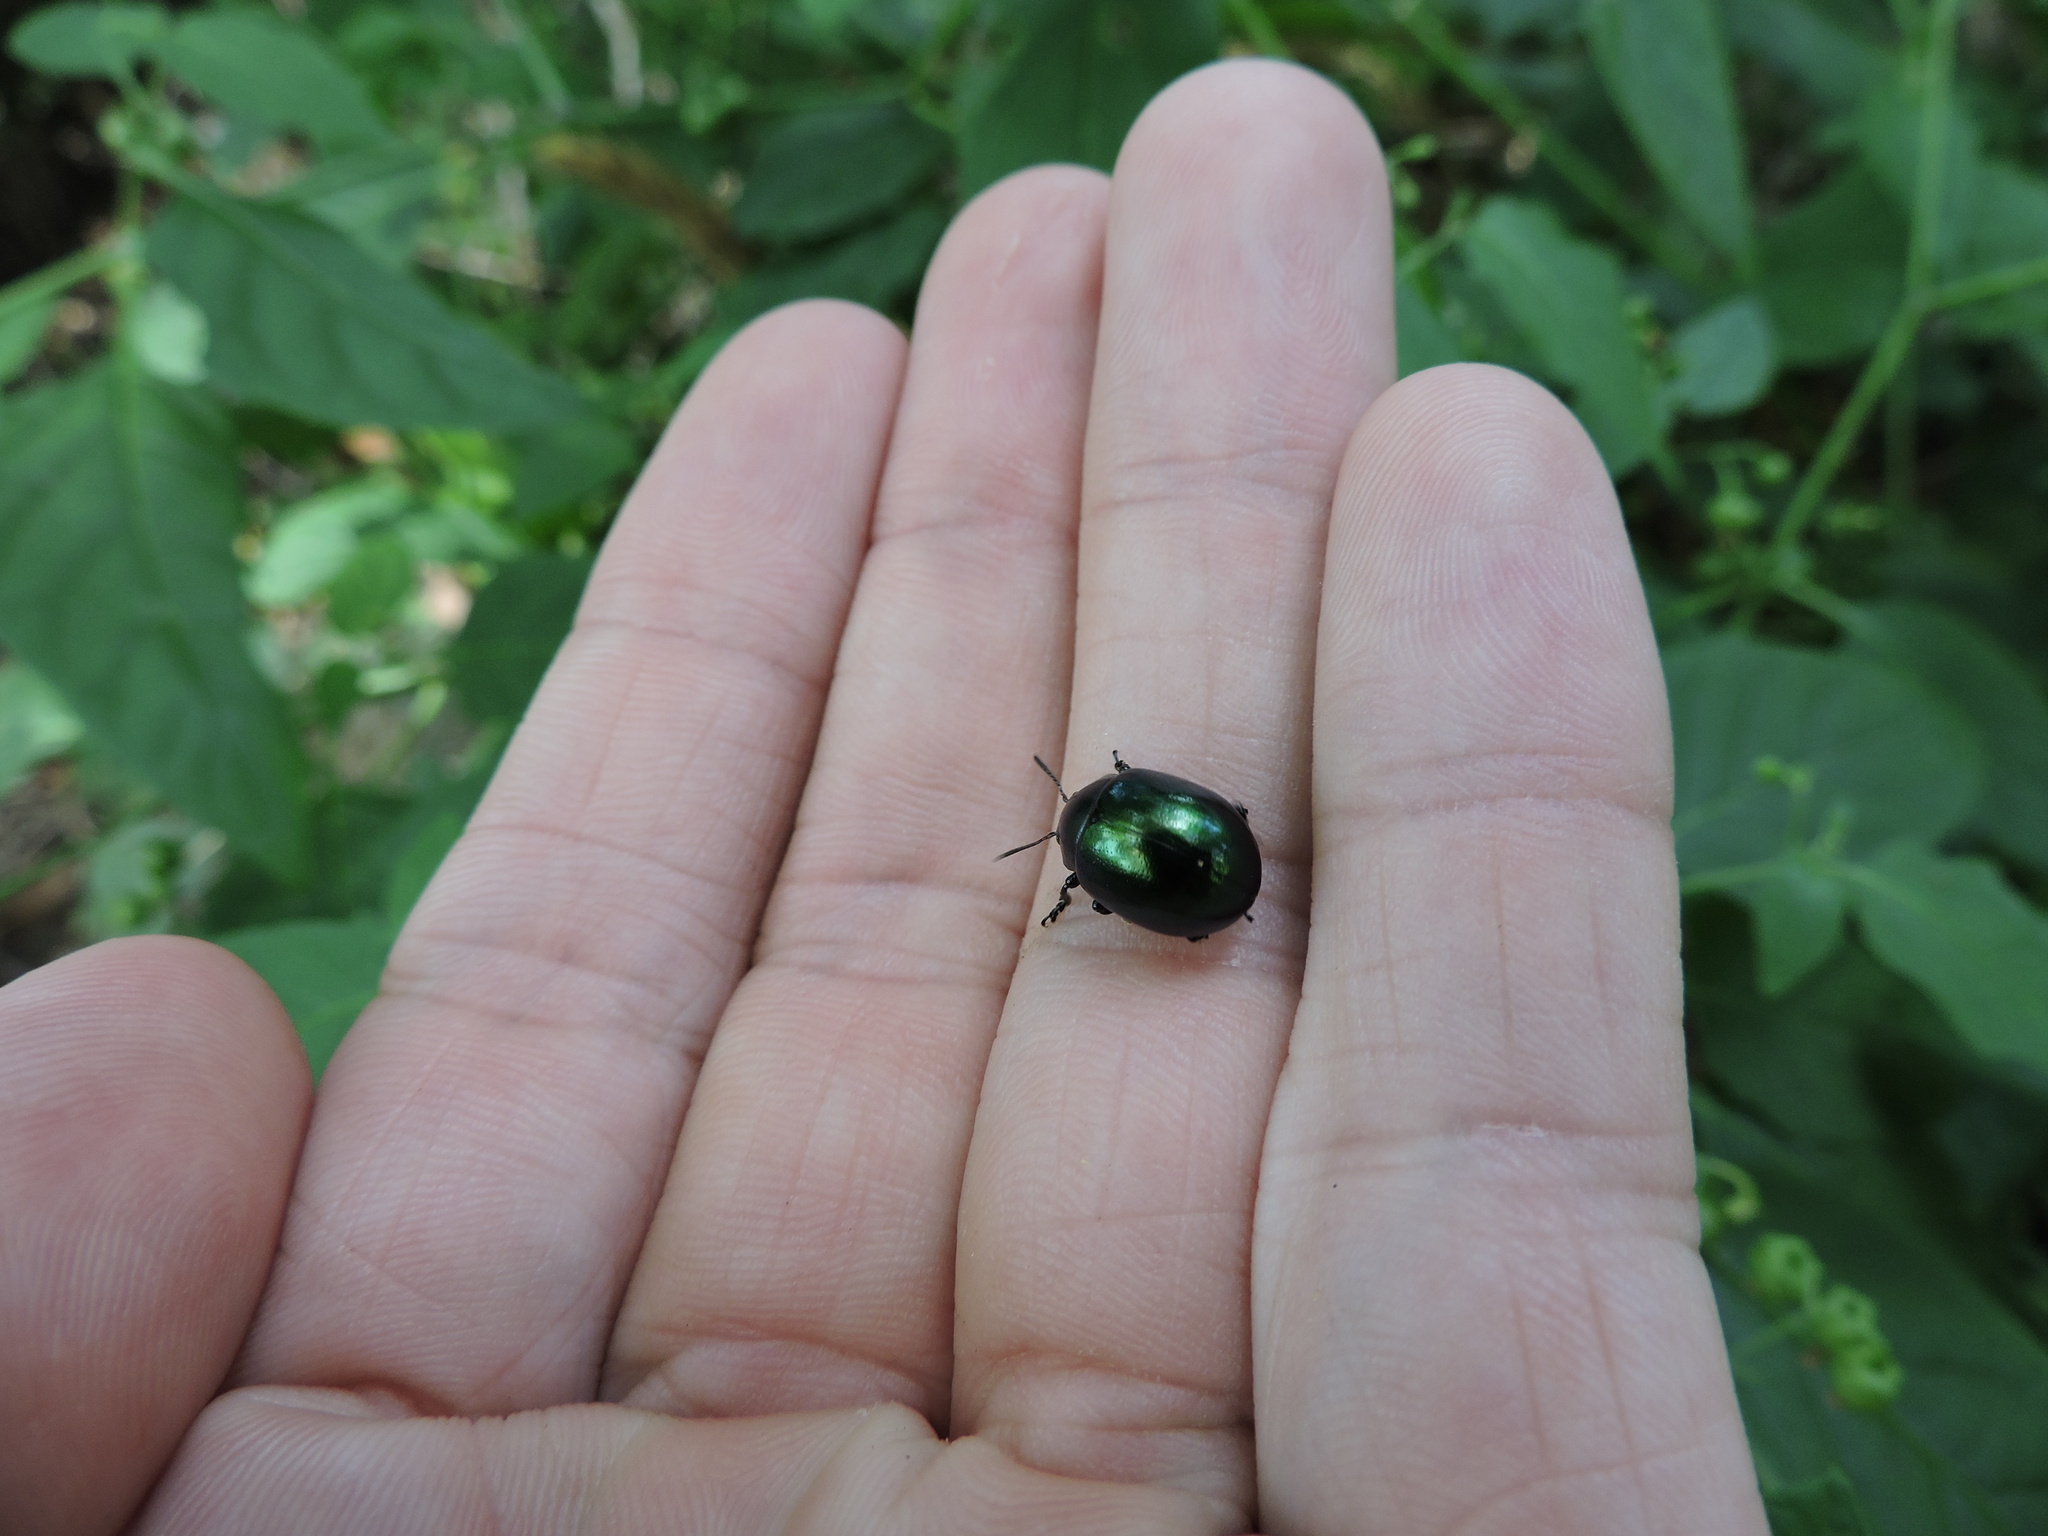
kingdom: Animalia
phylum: Arthropoda
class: Insecta
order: Coleoptera
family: Chrysomelidae
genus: Leptinotarsa
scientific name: Leptinotarsa haldemani
